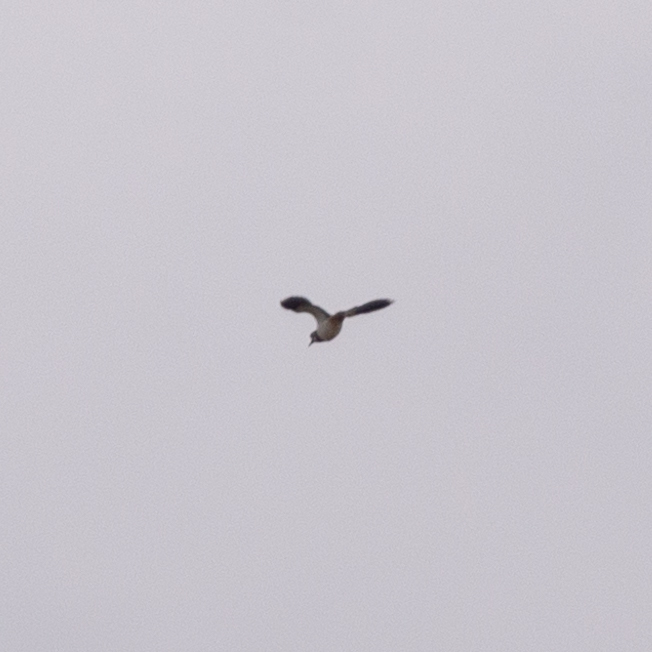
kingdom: Animalia
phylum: Chordata
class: Aves
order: Charadriiformes
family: Charadriidae
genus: Vanellus
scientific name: Vanellus vanellus
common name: Northern lapwing
